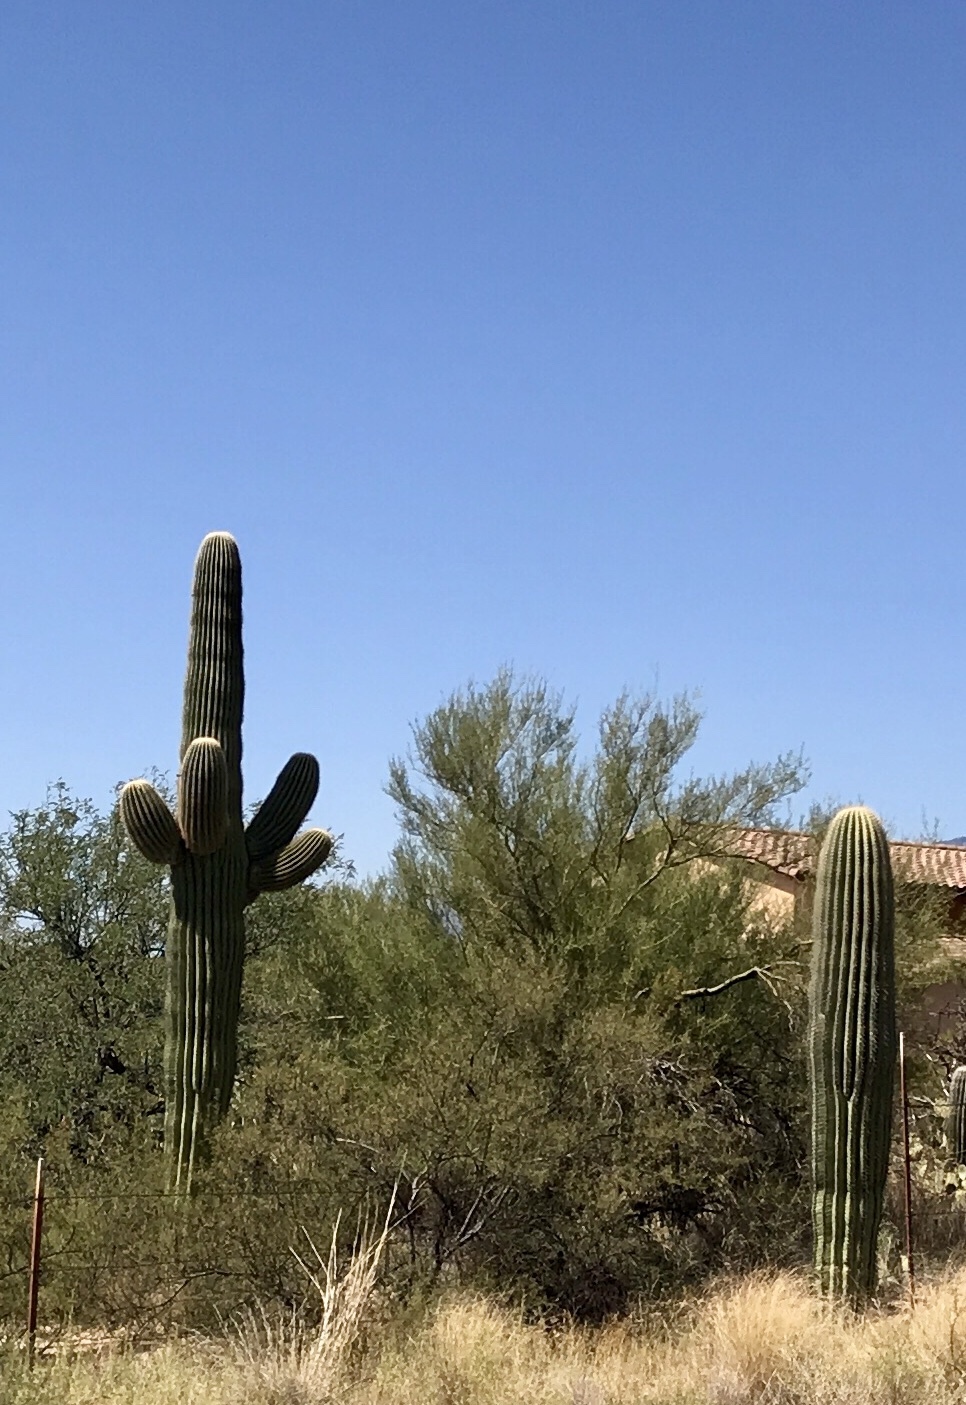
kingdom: Plantae
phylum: Tracheophyta
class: Magnoliopsida
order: Caryophyllales
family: Cactaceae
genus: Carnegiea
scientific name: Carnegiea gigantea
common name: Saguaro
